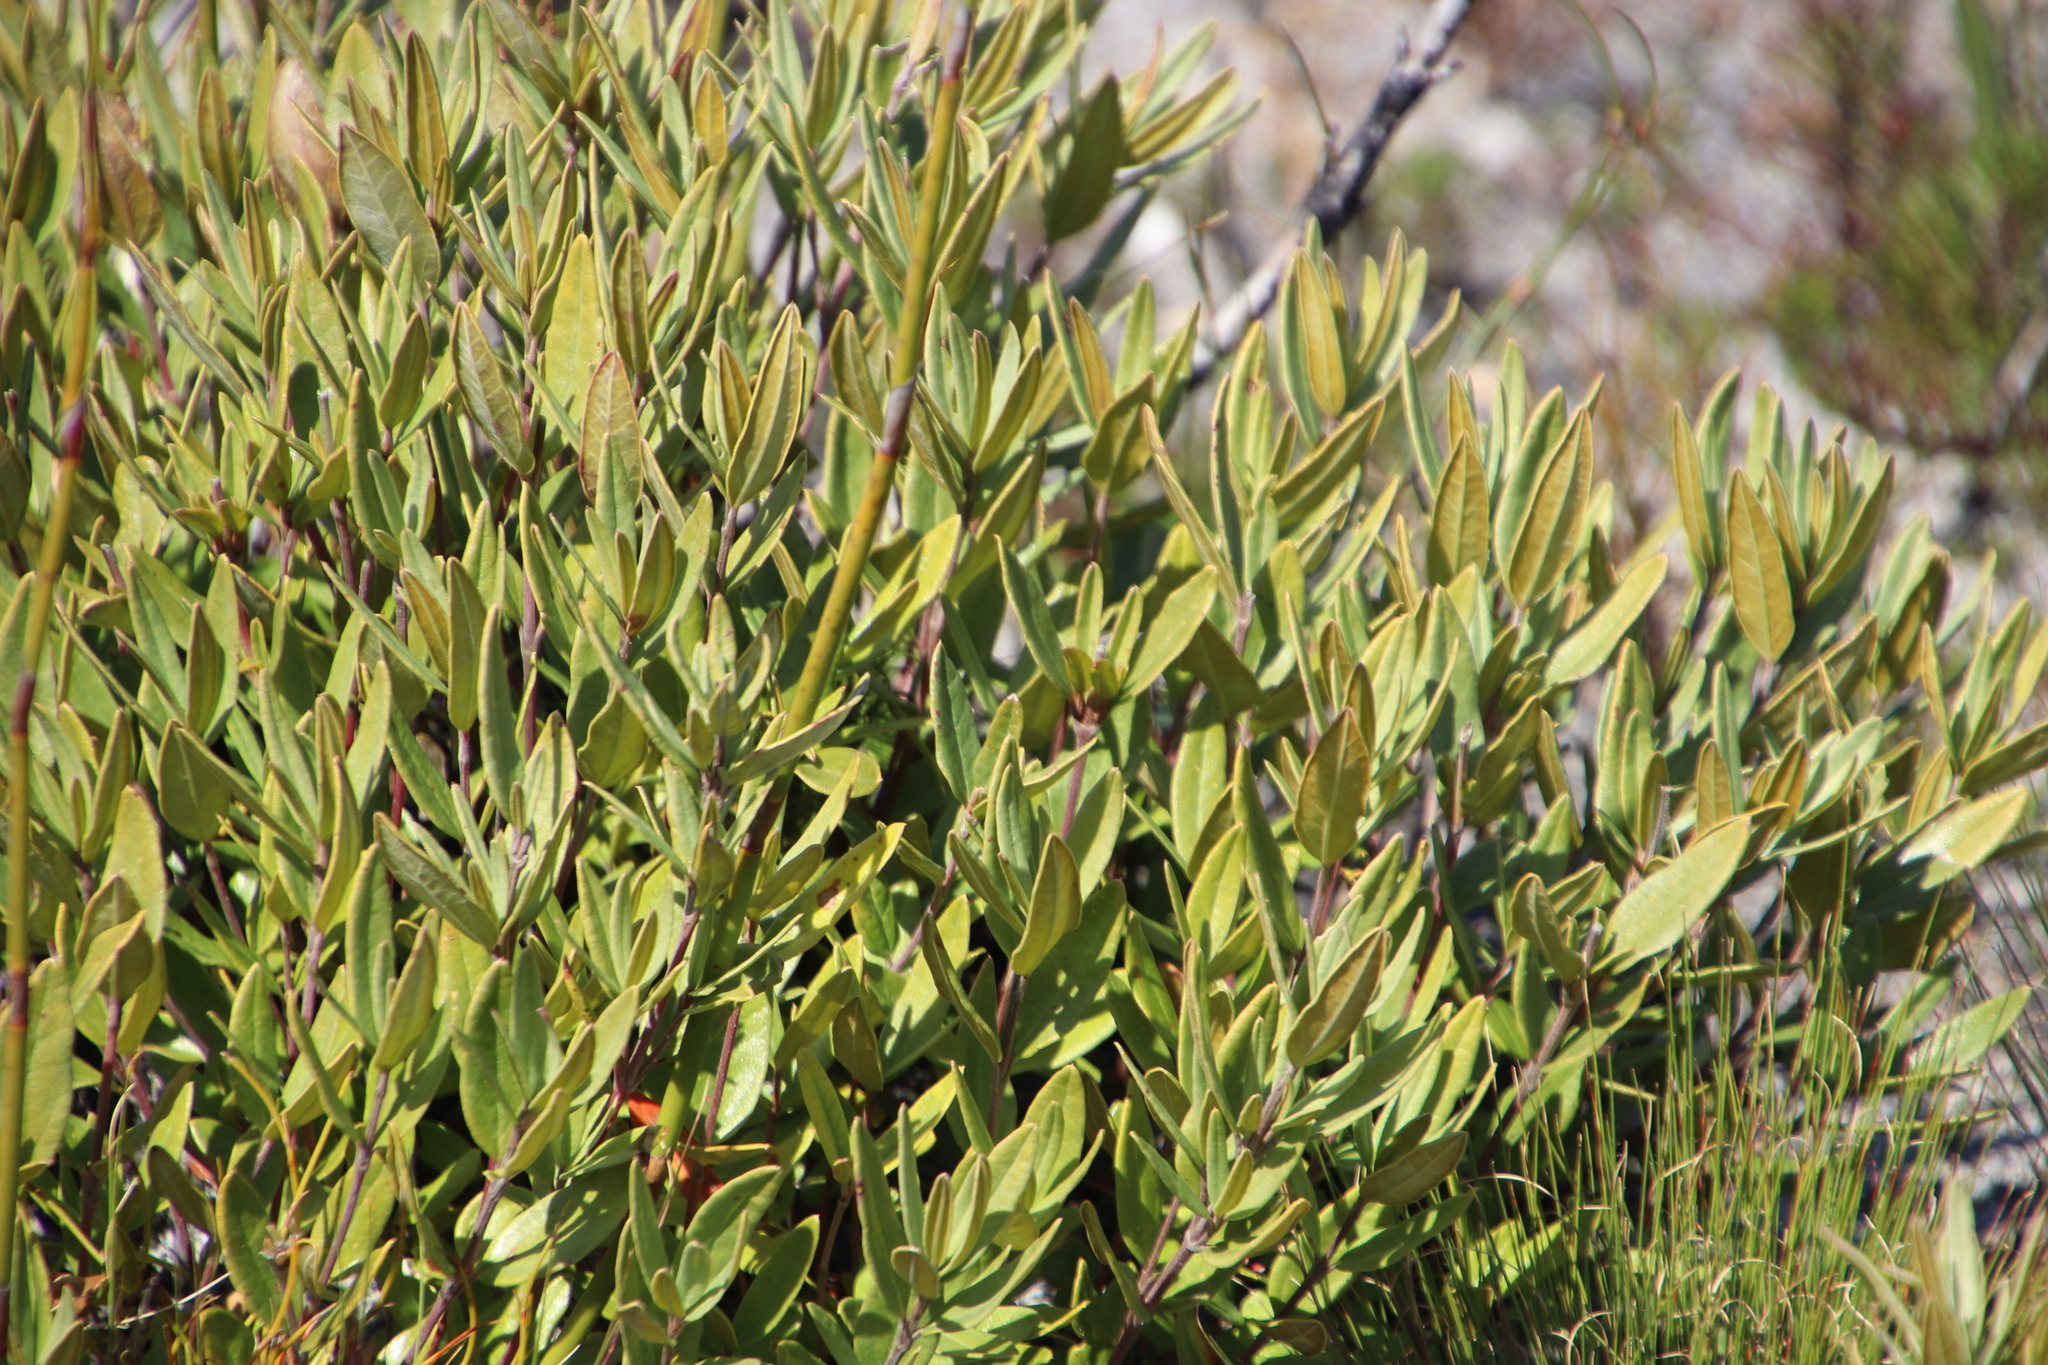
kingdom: Plantae
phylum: Tracheophyta
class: Magnoliopsida
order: Cornales
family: Grubbiaceae
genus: Grubbia
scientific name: Grubbia tomentosa
